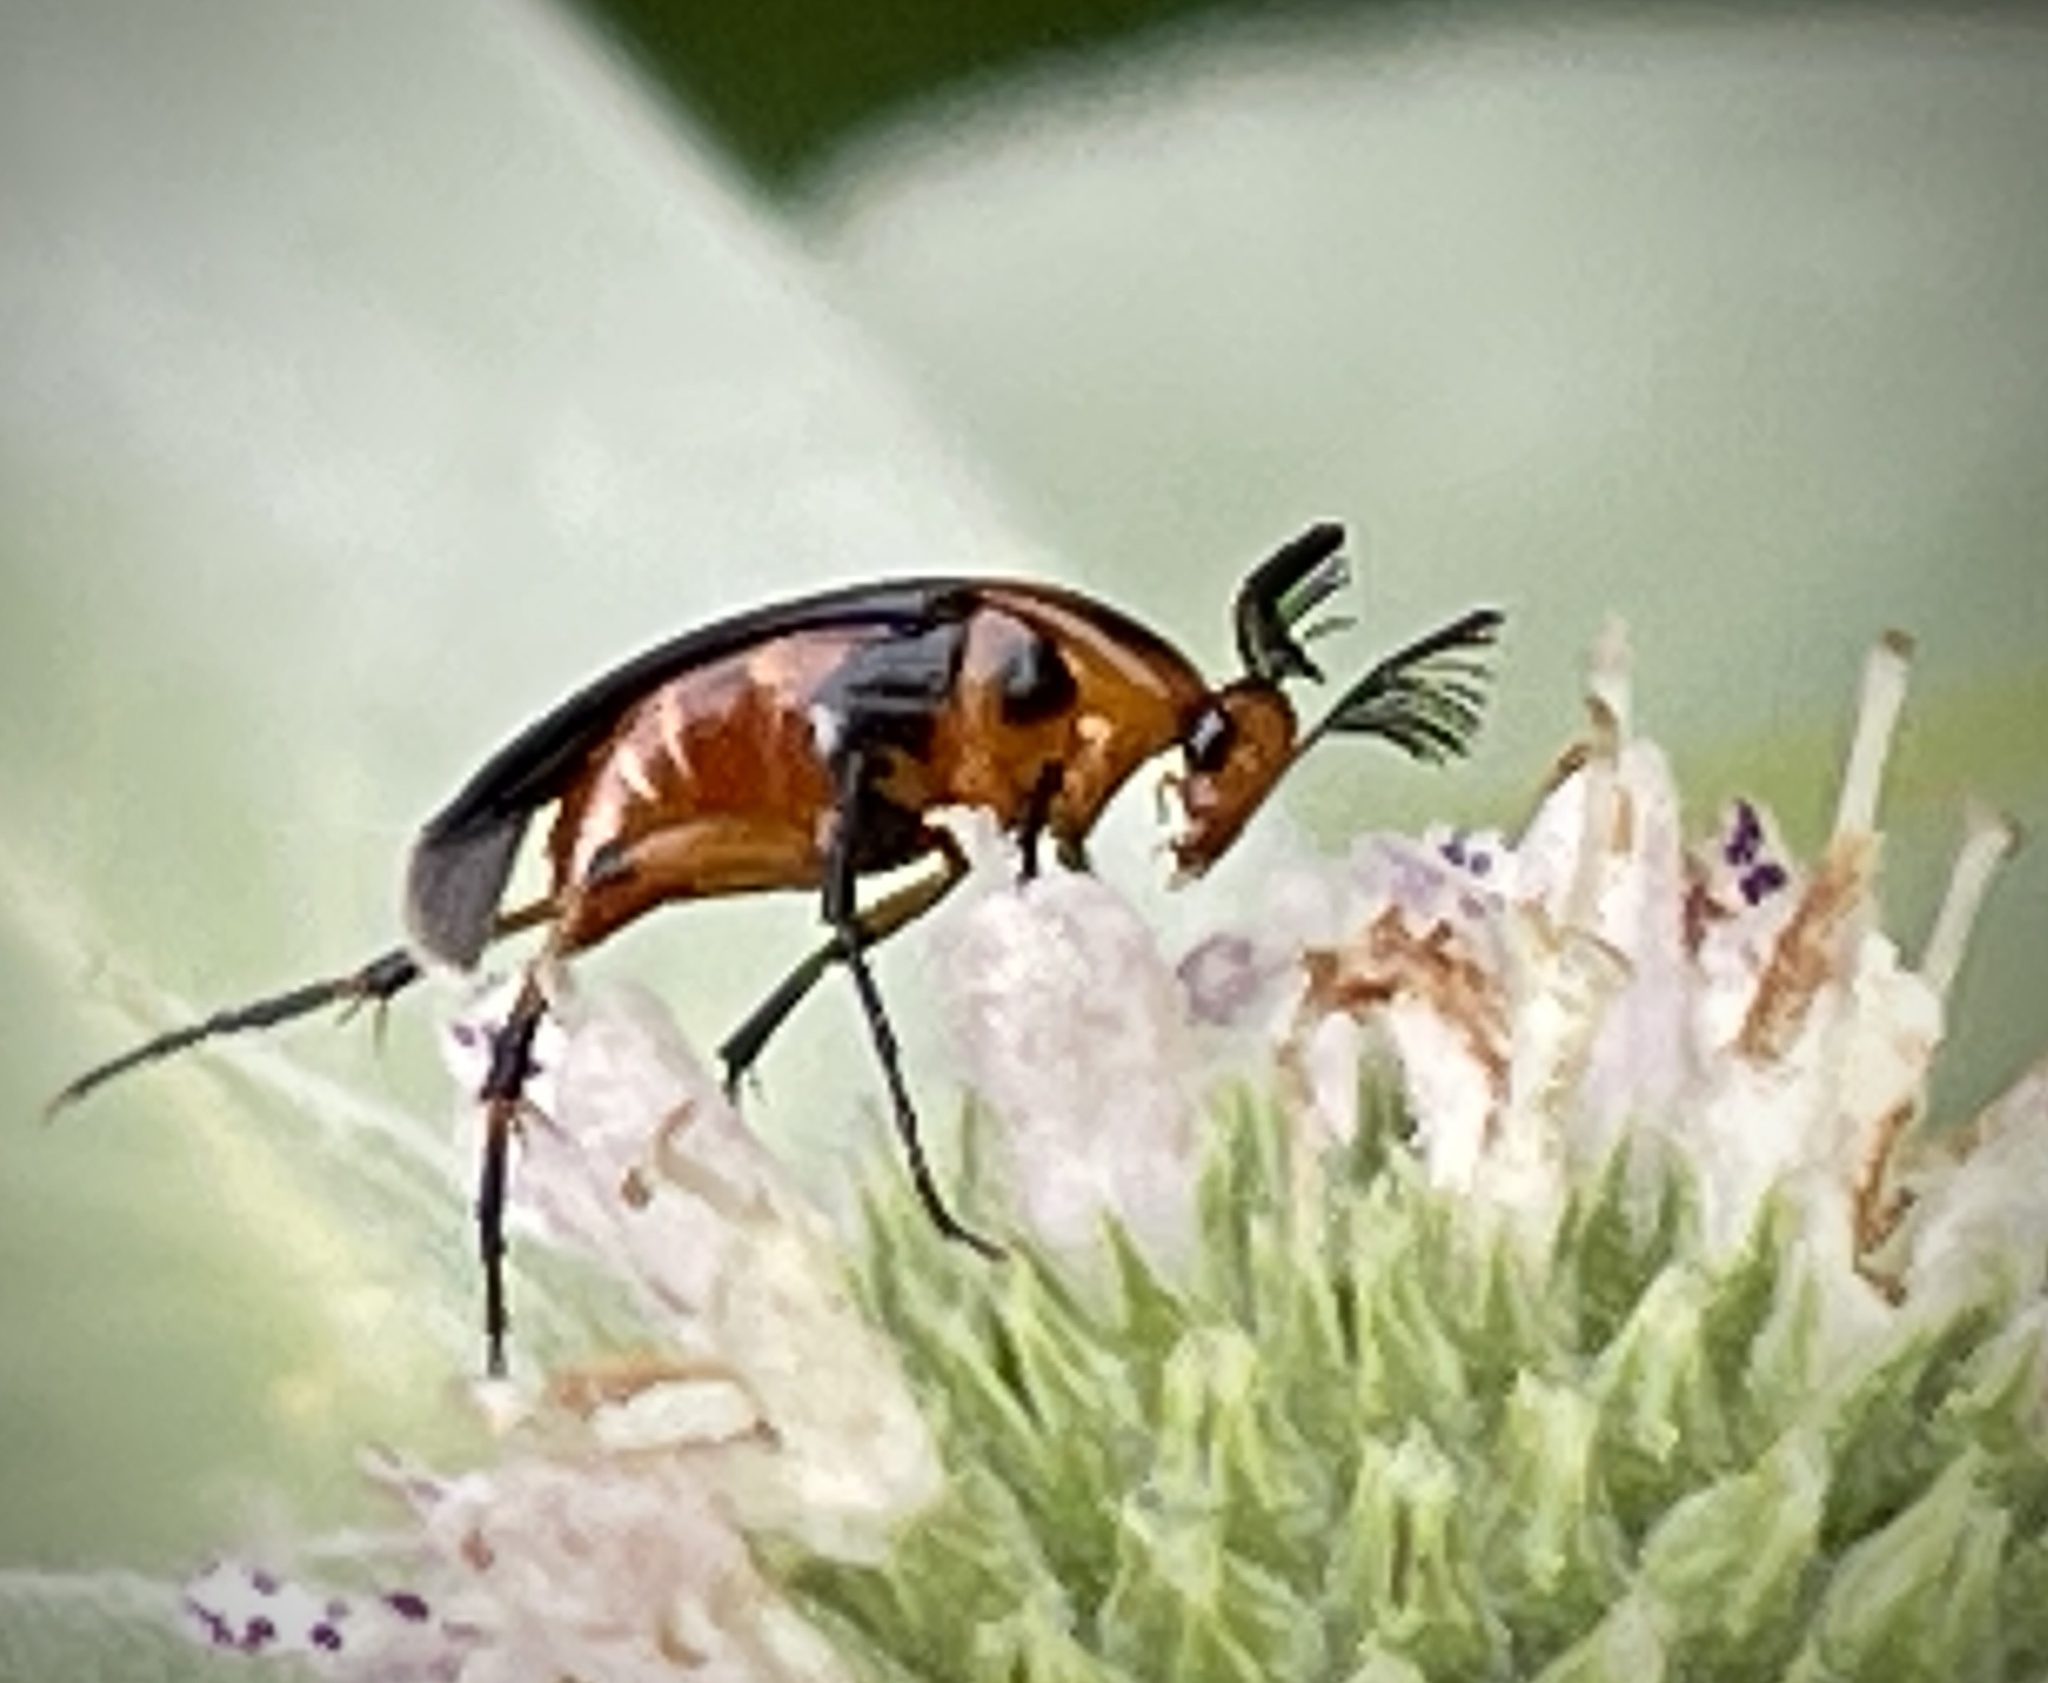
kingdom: Animalia
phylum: Arthropoda
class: Insecta
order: Coleoptera
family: Ripiphoridae
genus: Macrosiagon
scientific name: Macrosiagon limbatum
